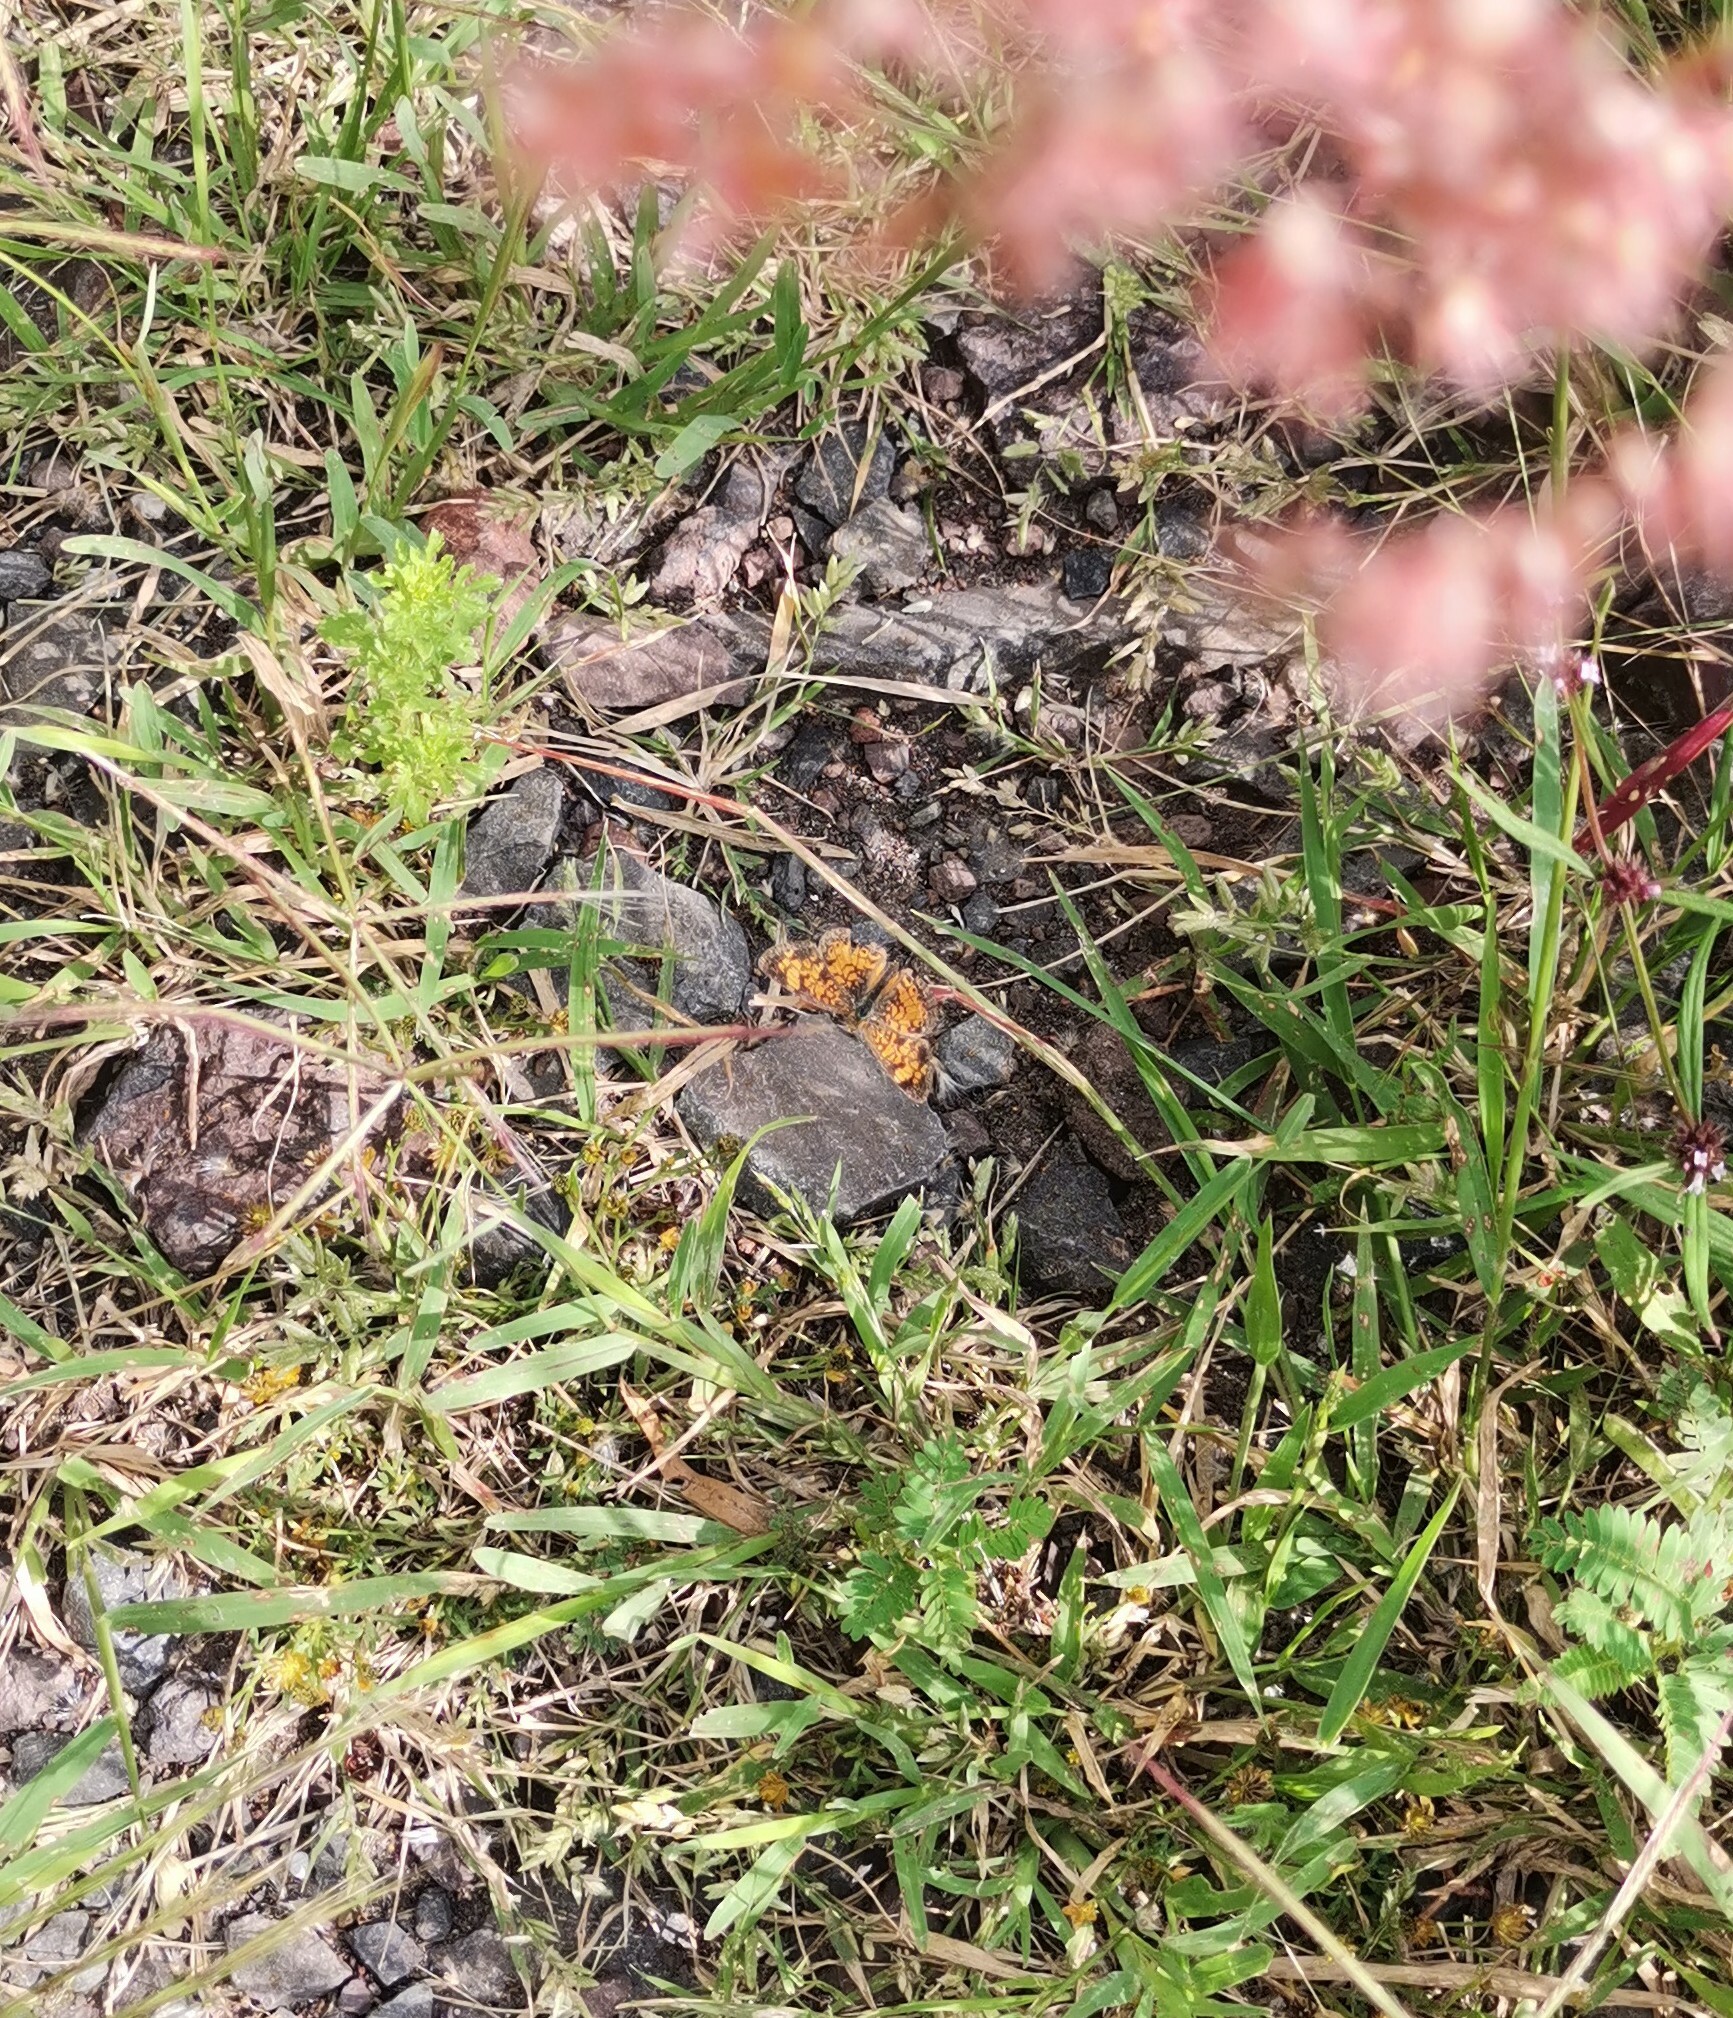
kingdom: Animalia
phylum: Arthropoda
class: Insecta
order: Lepidoptera
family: Nymphalidae
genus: Phyciodes
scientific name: Phyciodes tharos
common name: Pearl crescent
